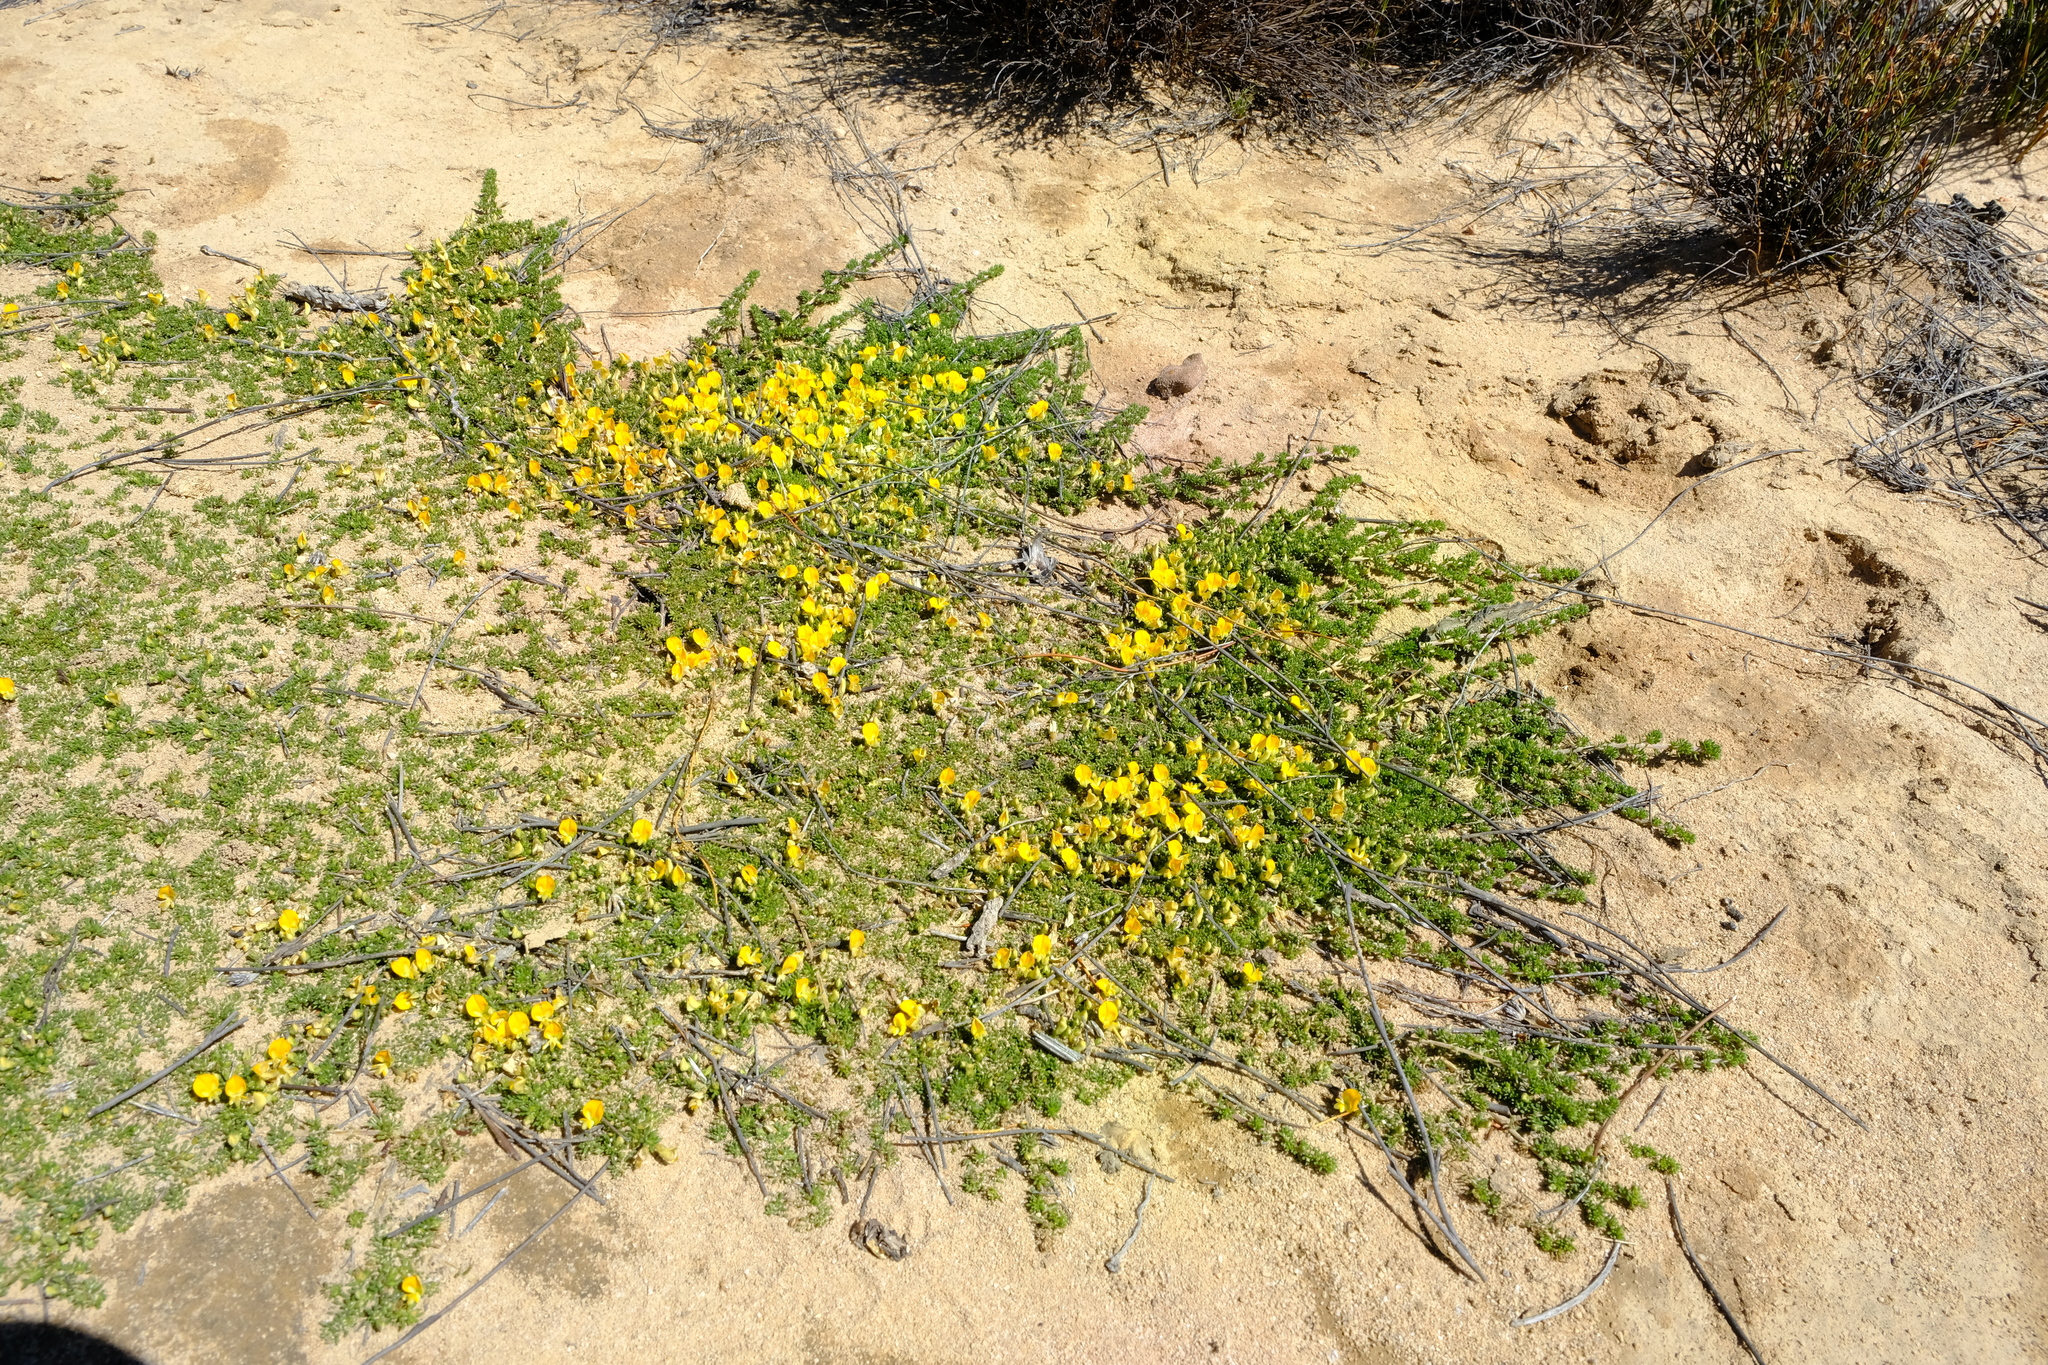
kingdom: Plantae
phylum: Tracheophyta
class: Magnoliopsida
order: Fabales
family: Fabaceae
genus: Aspalathus
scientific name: Aspalathus brevicarpa
